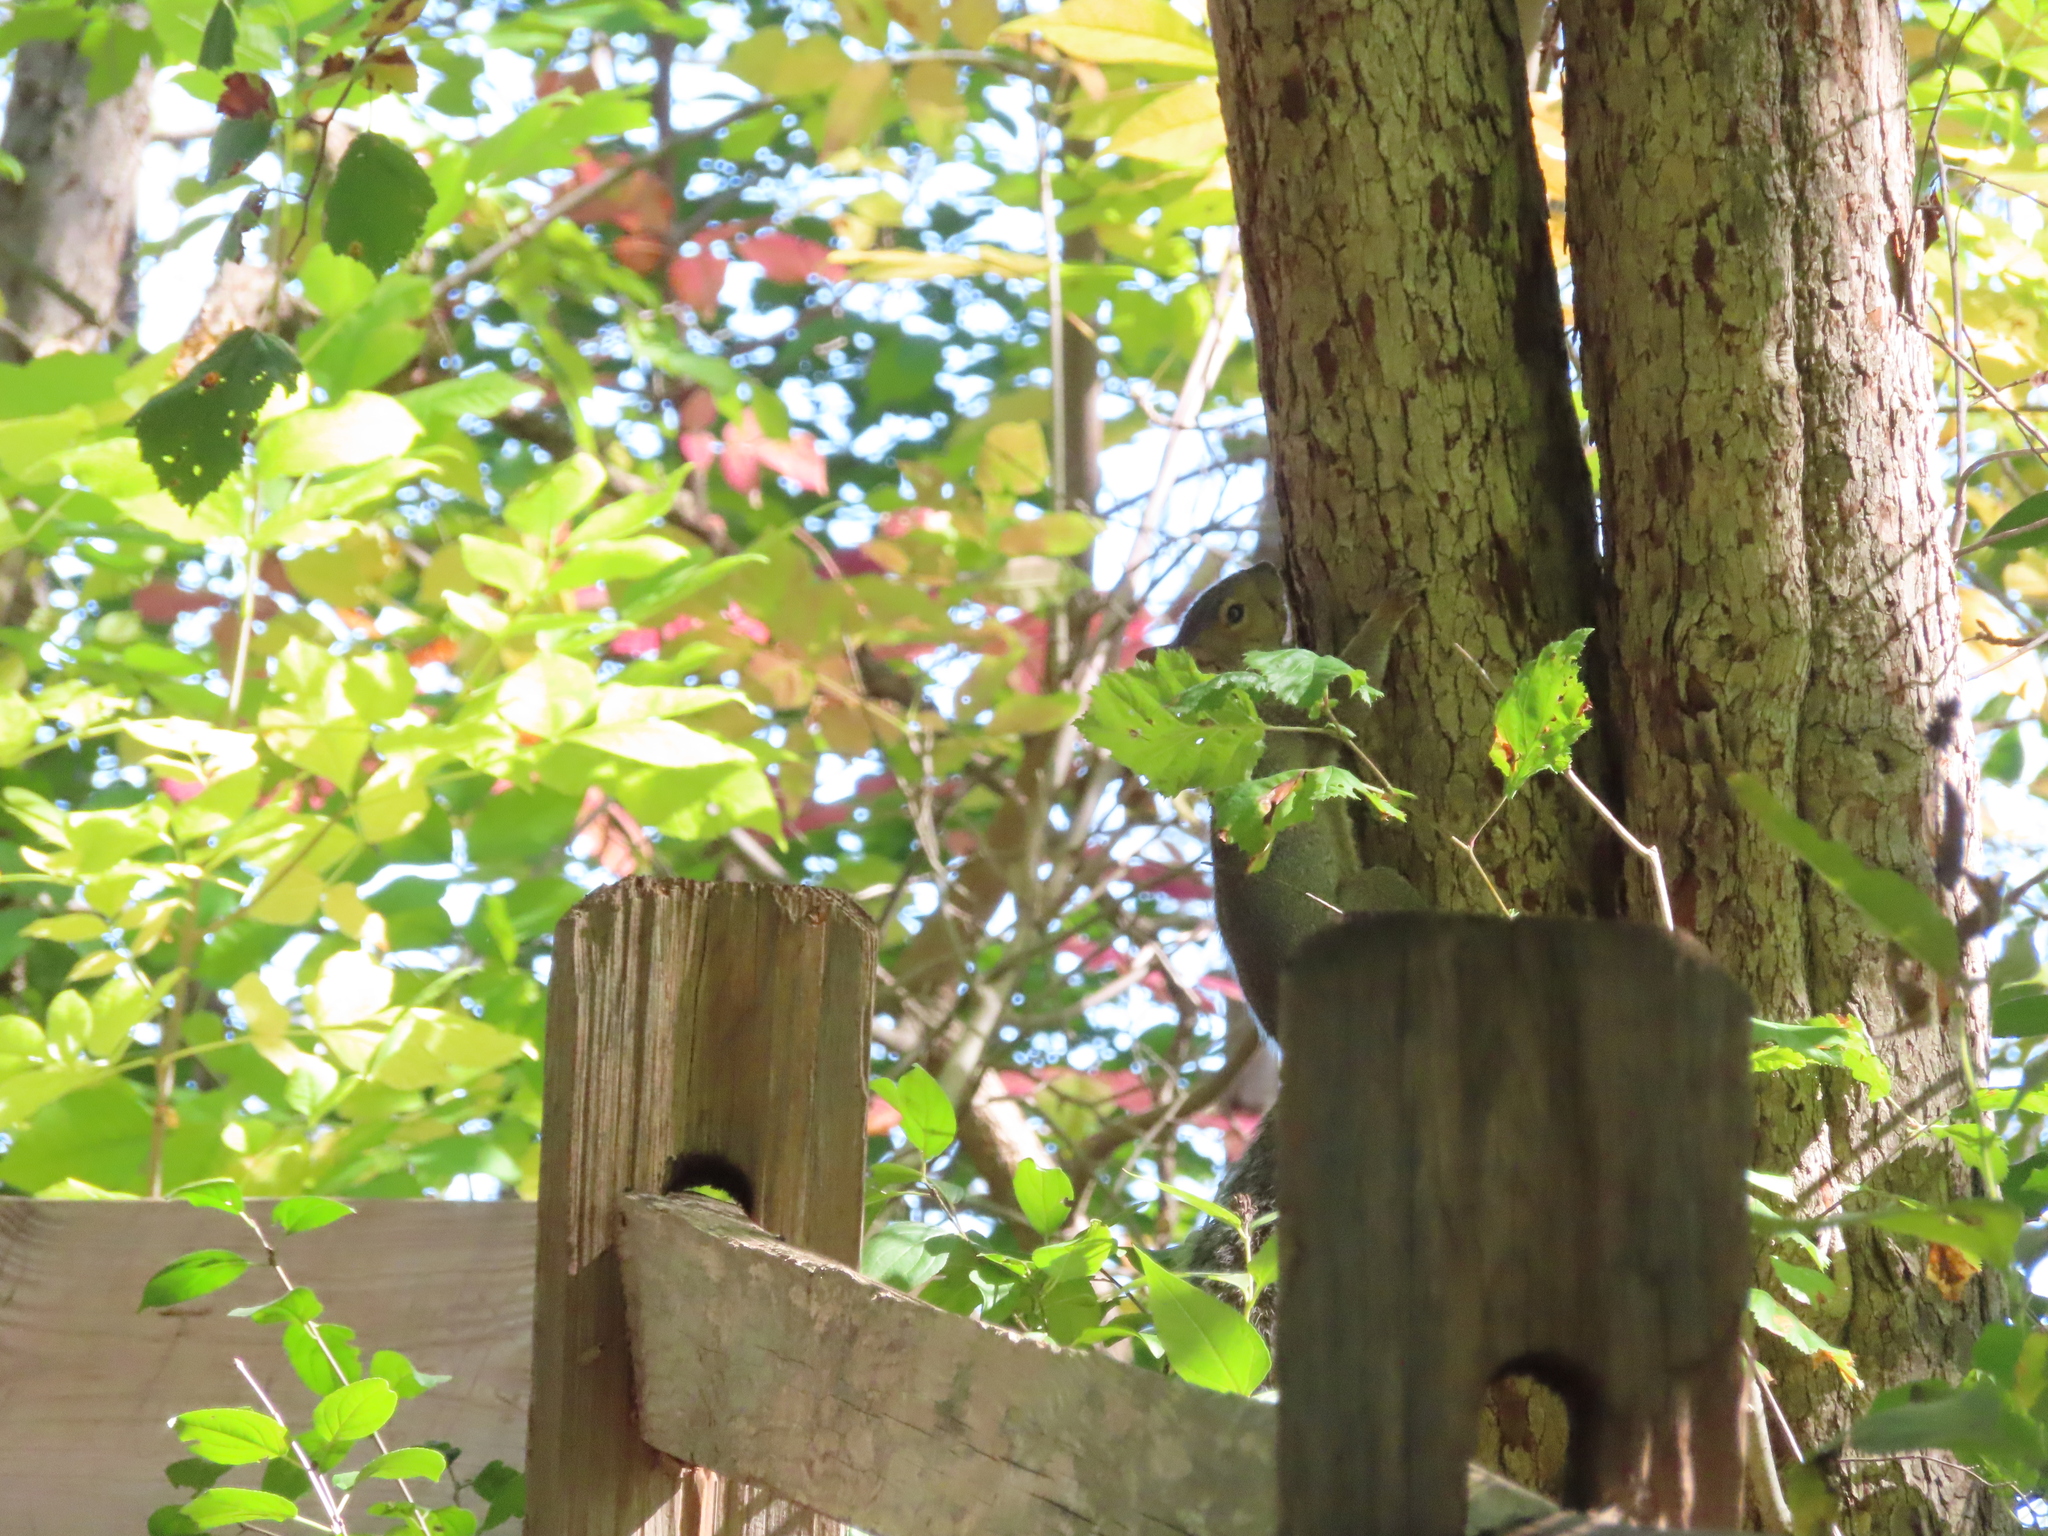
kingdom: Animalia
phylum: Chordata
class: Mammalia
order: Rodentia
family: Sciuridae
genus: Sciurus
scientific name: Sciurus carolinensis
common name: Eastern gray squirrel
